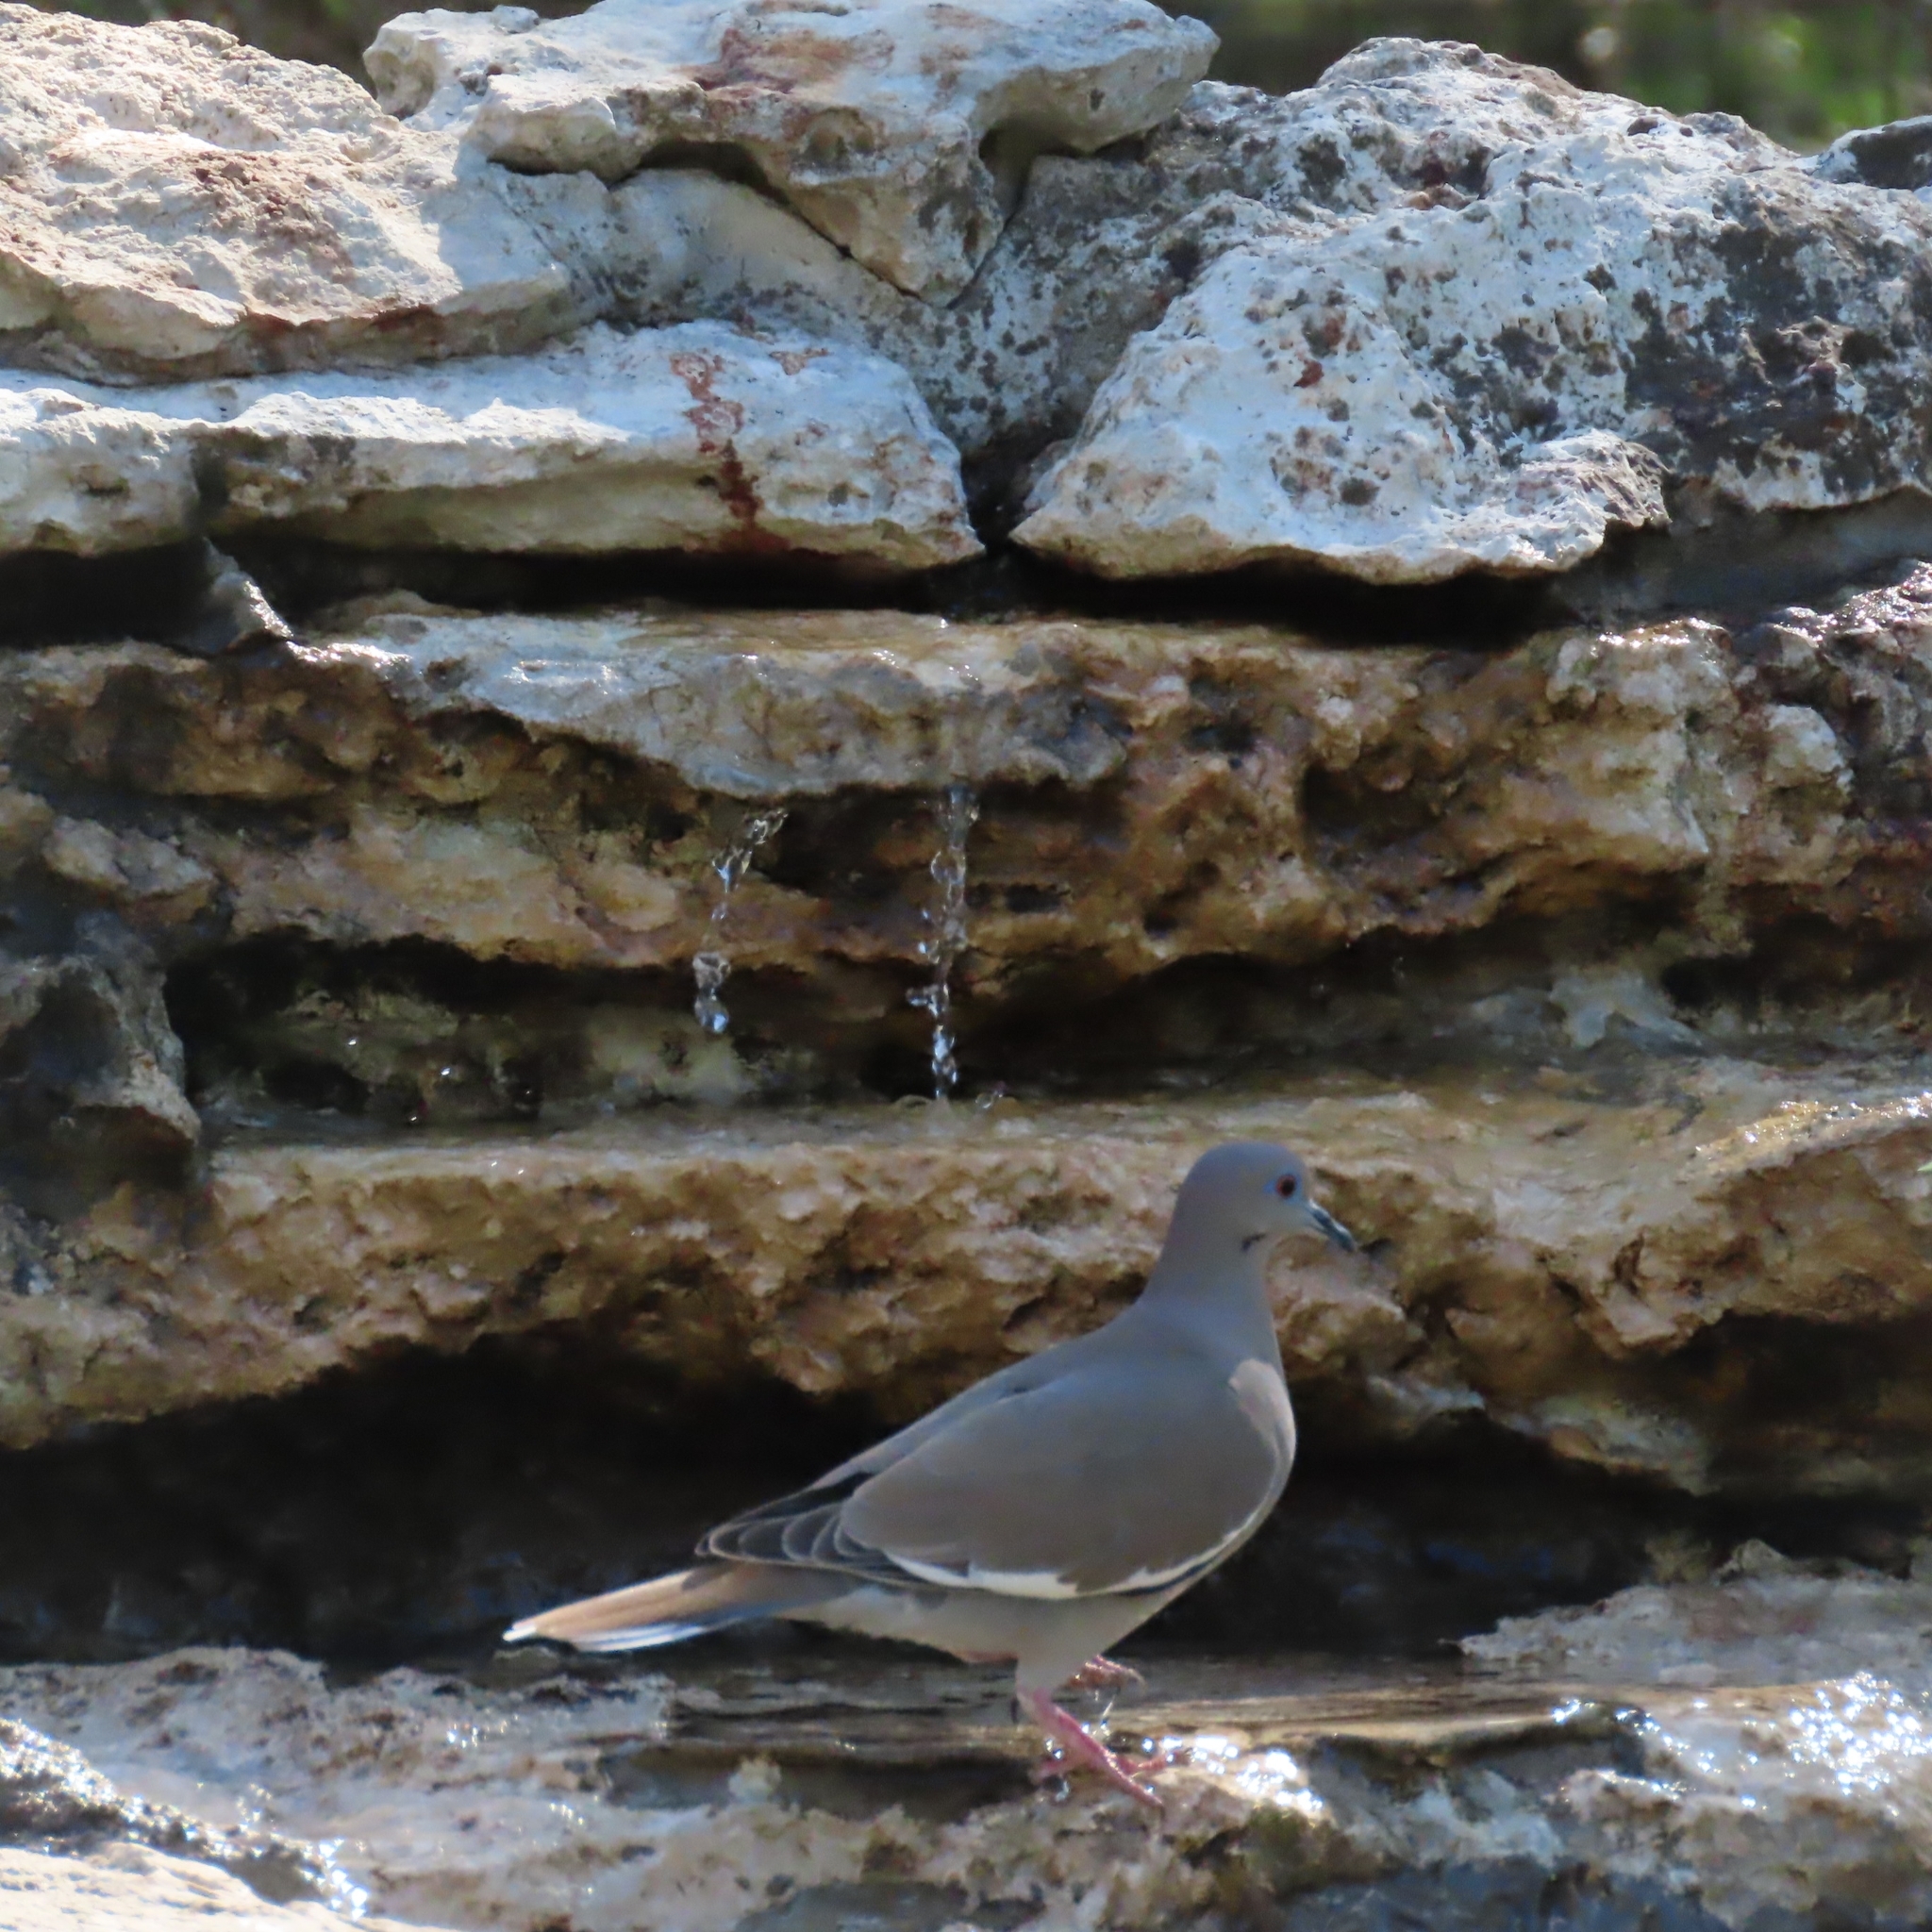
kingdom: Animalia
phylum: Chordata
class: Aves
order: Columbiformes
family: Columbidae
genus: Zenaida
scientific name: Zenaida asiatica
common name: White-winged dove
